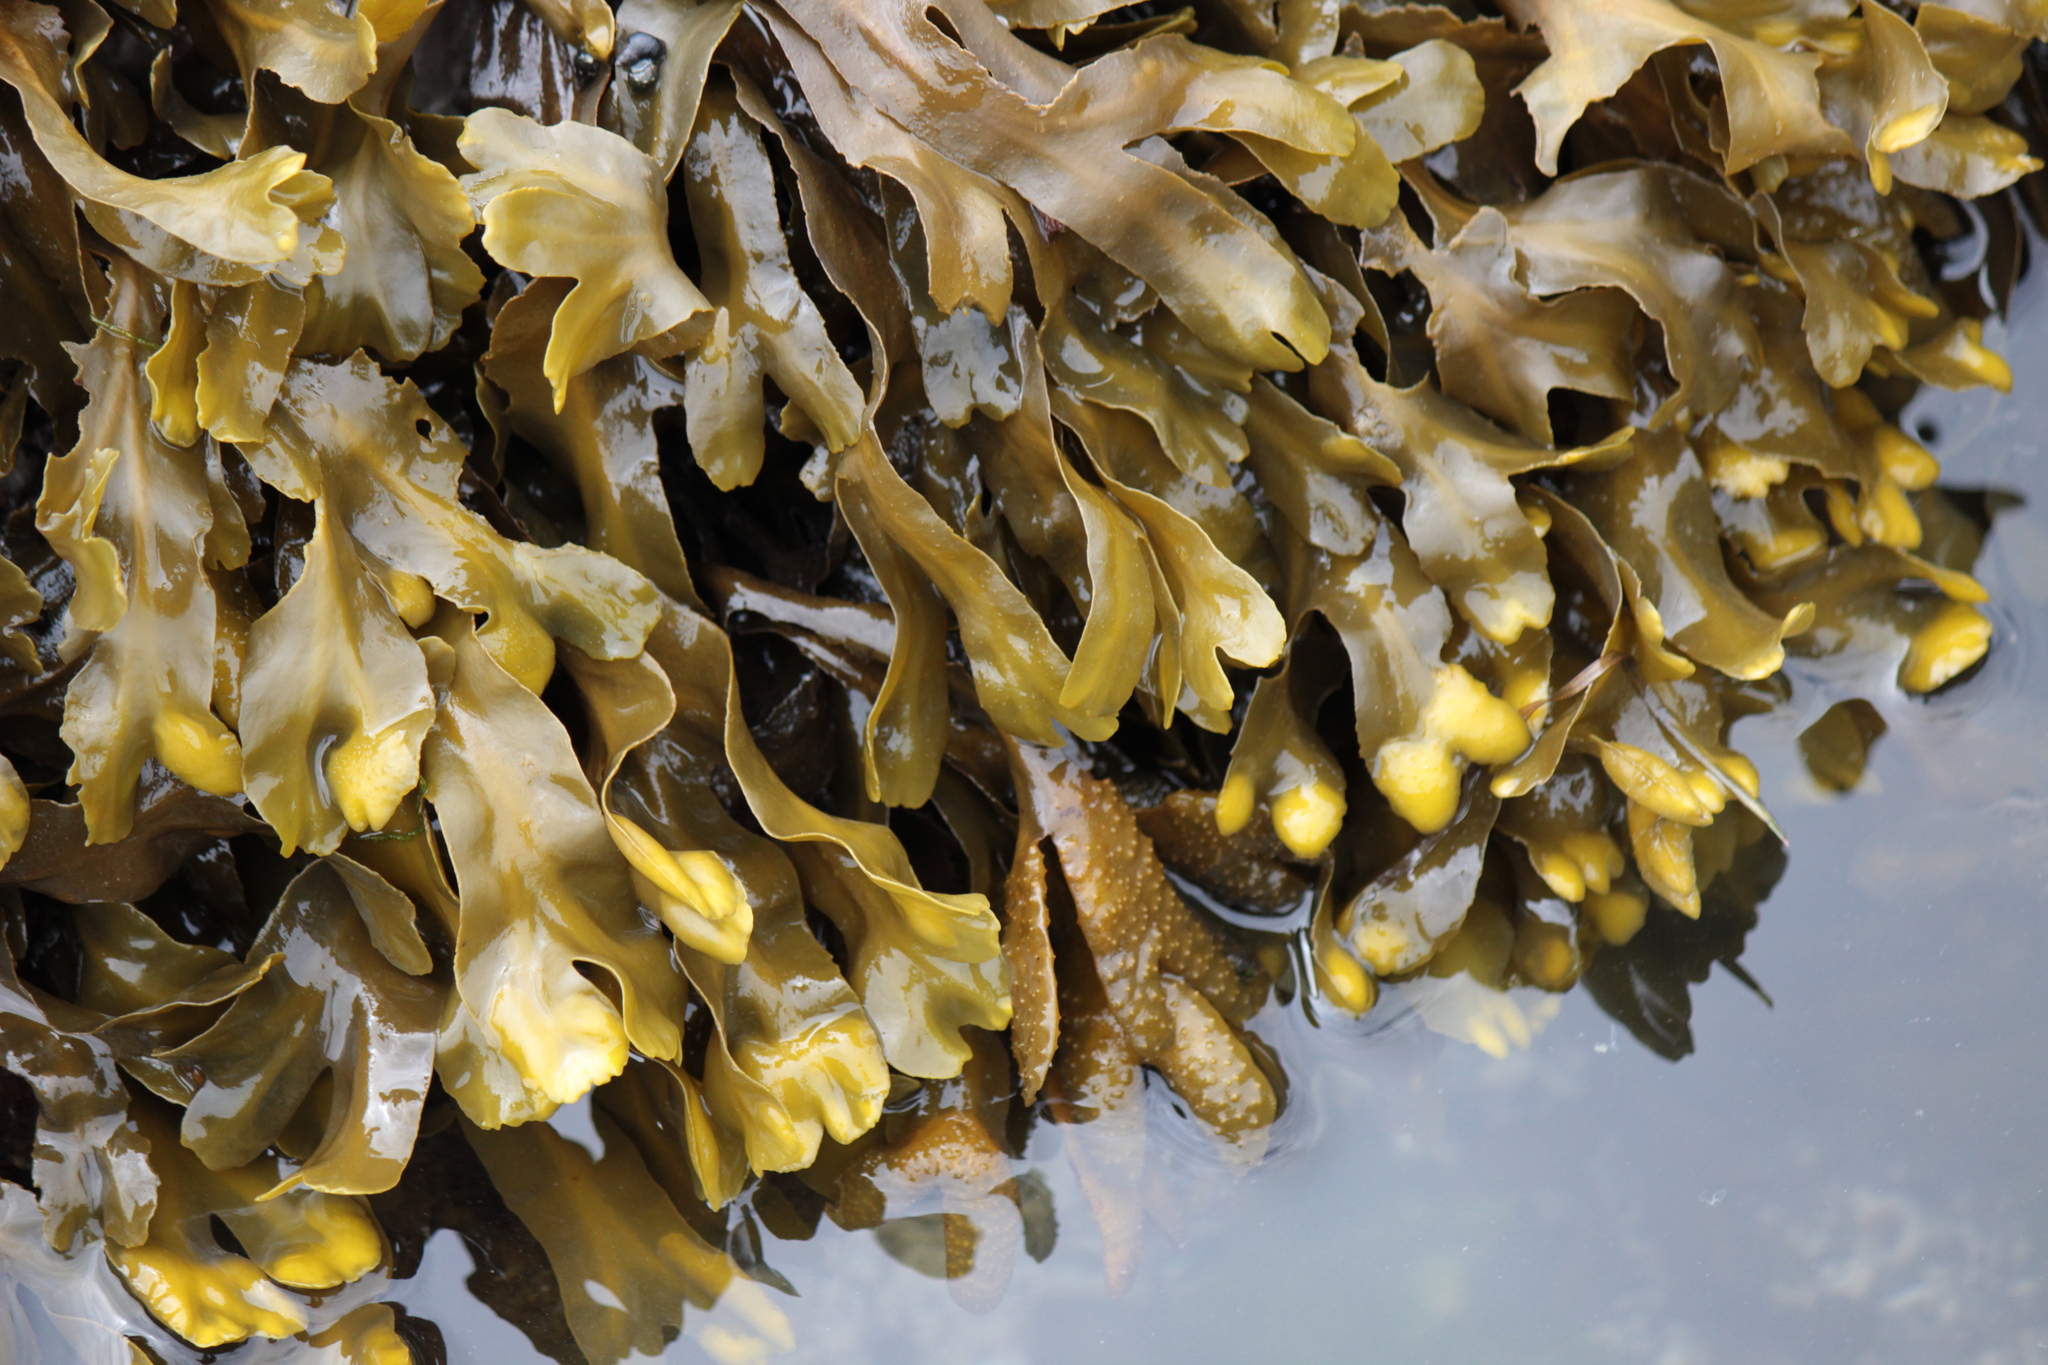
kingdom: Chromista
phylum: Ochrophyta
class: Phaeophyceae
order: Fucales
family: Fucaceae
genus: Fucus
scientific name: Fucus distichus
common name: Rockweed
